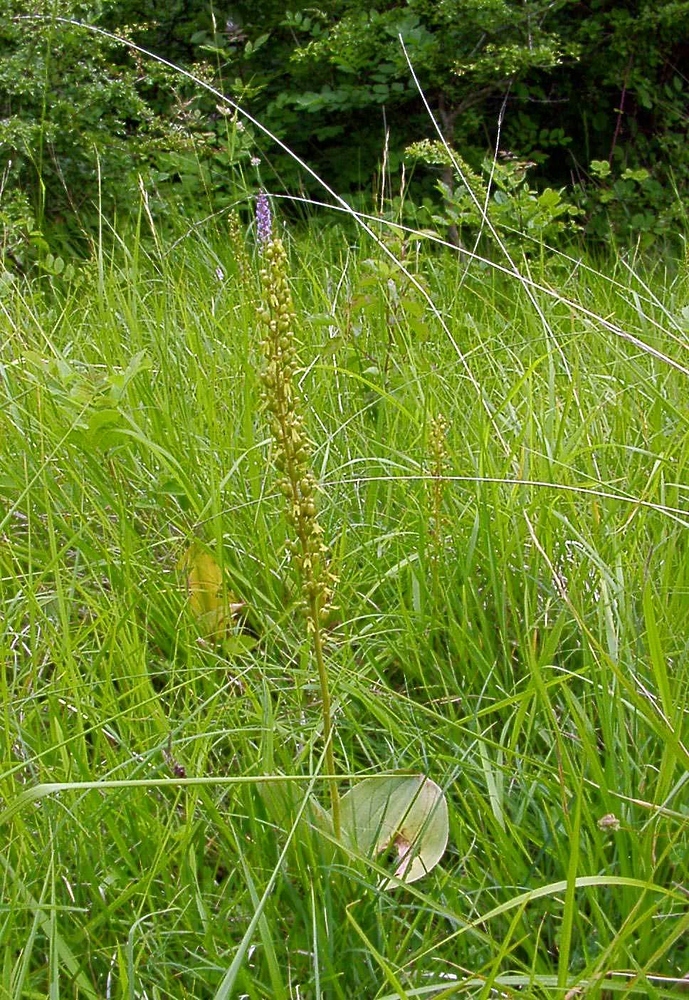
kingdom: Plantae
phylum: Tracheophyta
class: Liliopsida
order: Asparagales
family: Orchidaceae
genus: Neottia
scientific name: Neottia ovata
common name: Common twayblade
